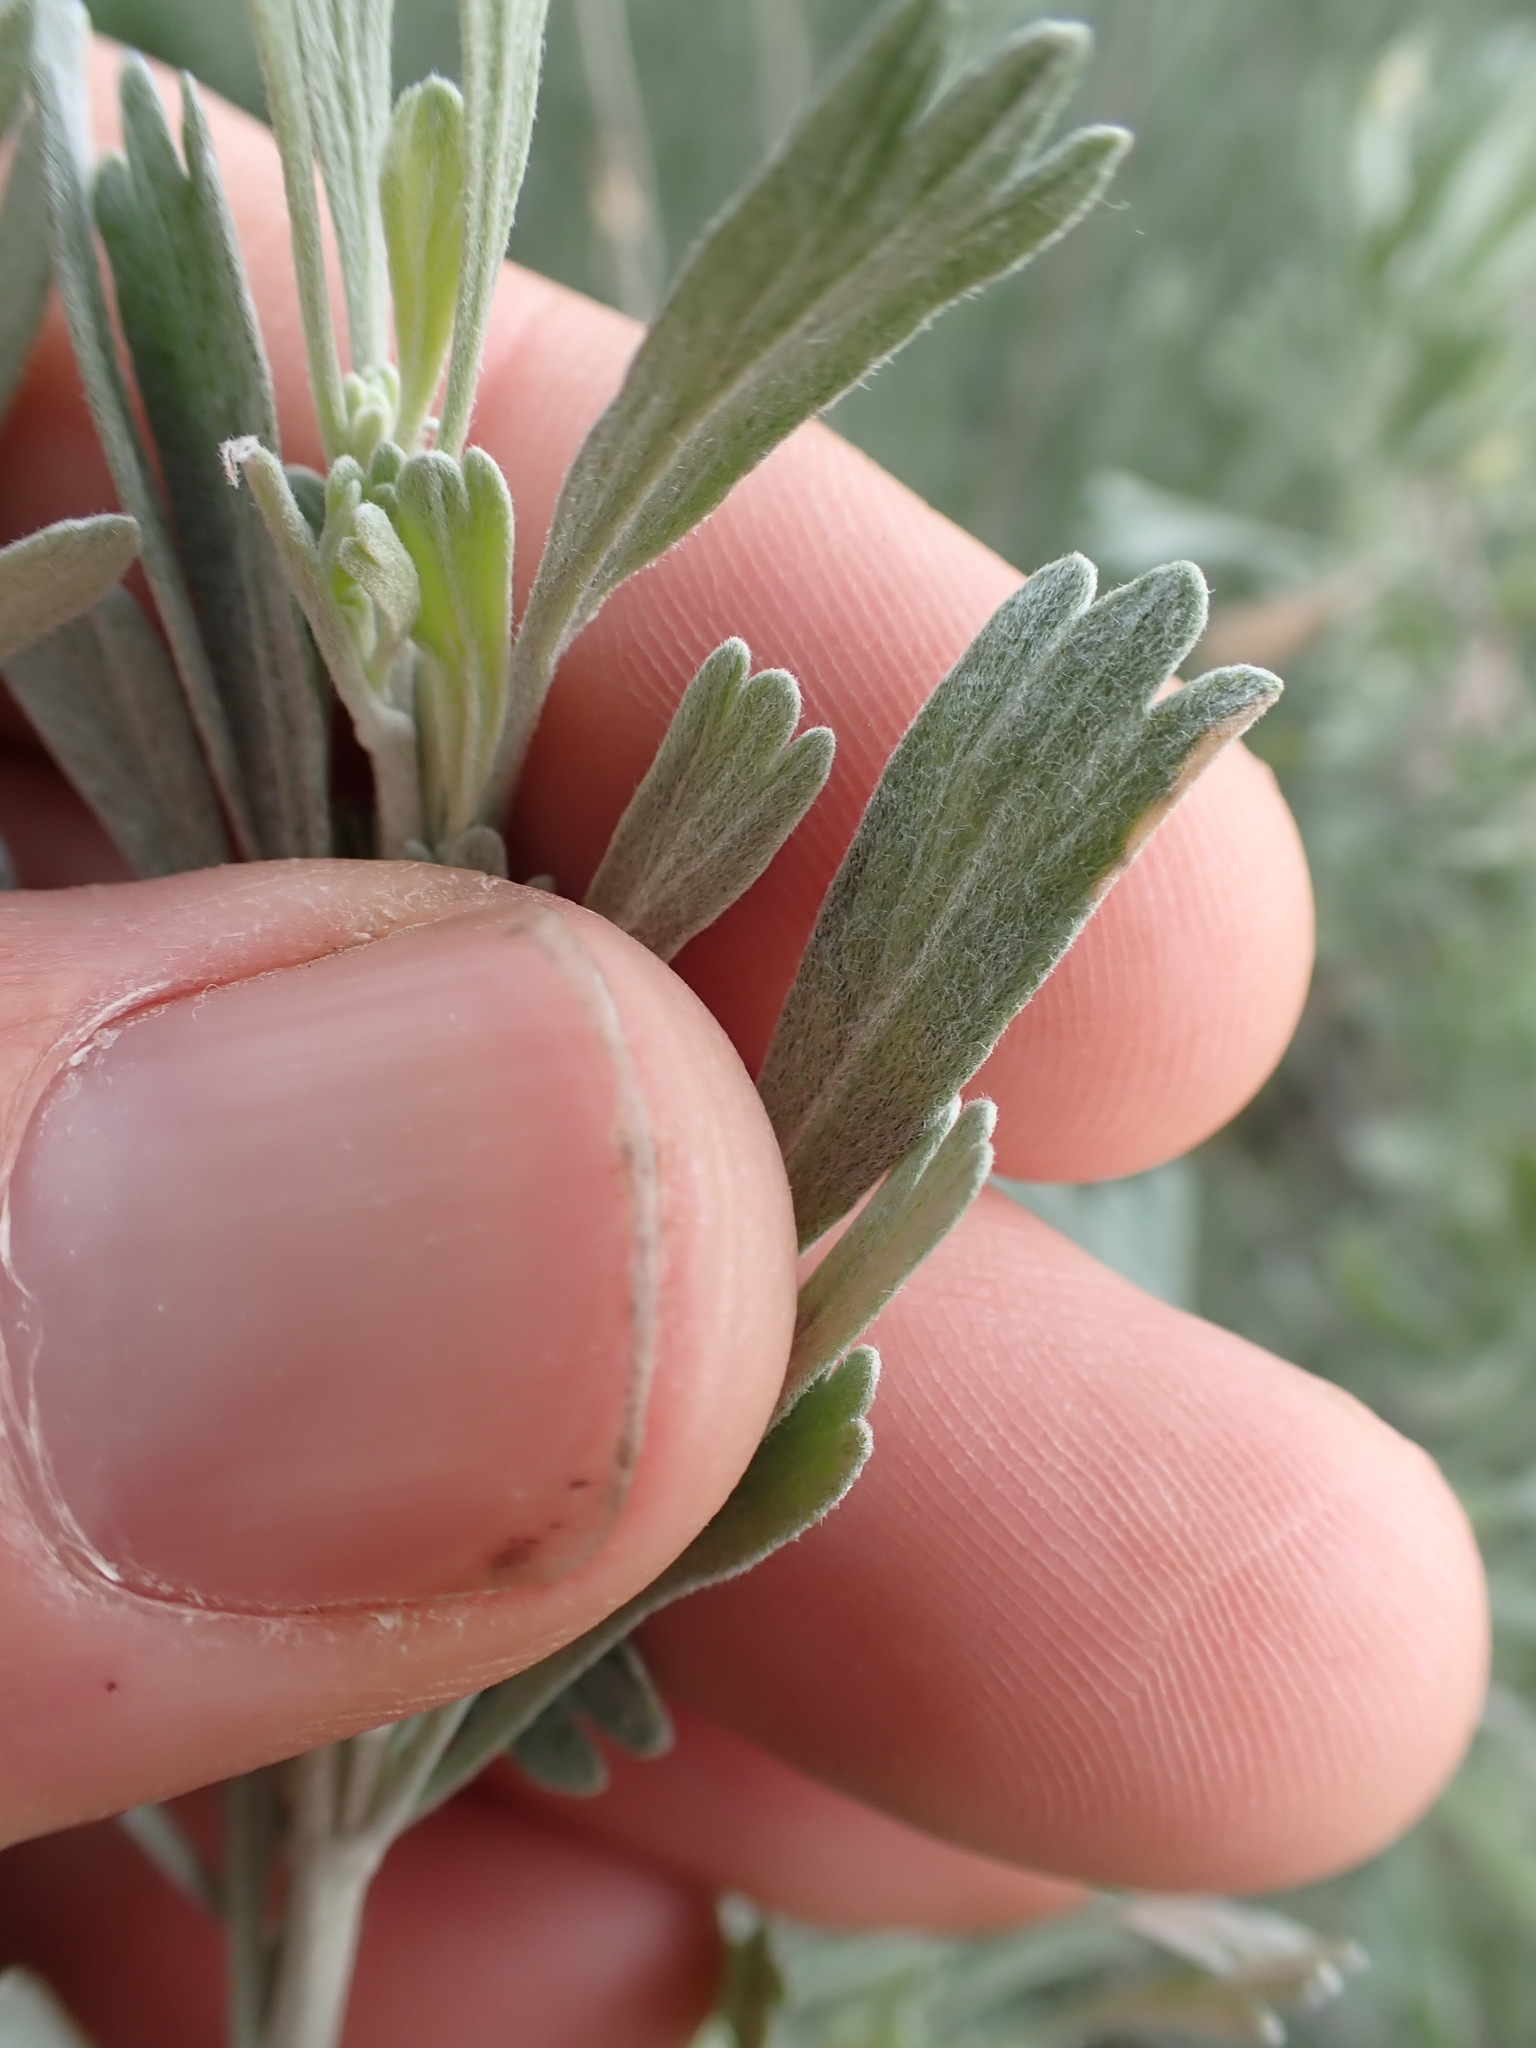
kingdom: Plantae
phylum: Tracheophyta
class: Magnoliopsida
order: Asterales
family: Asteraceae
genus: Artemisia
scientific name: Artemisia tridentata
